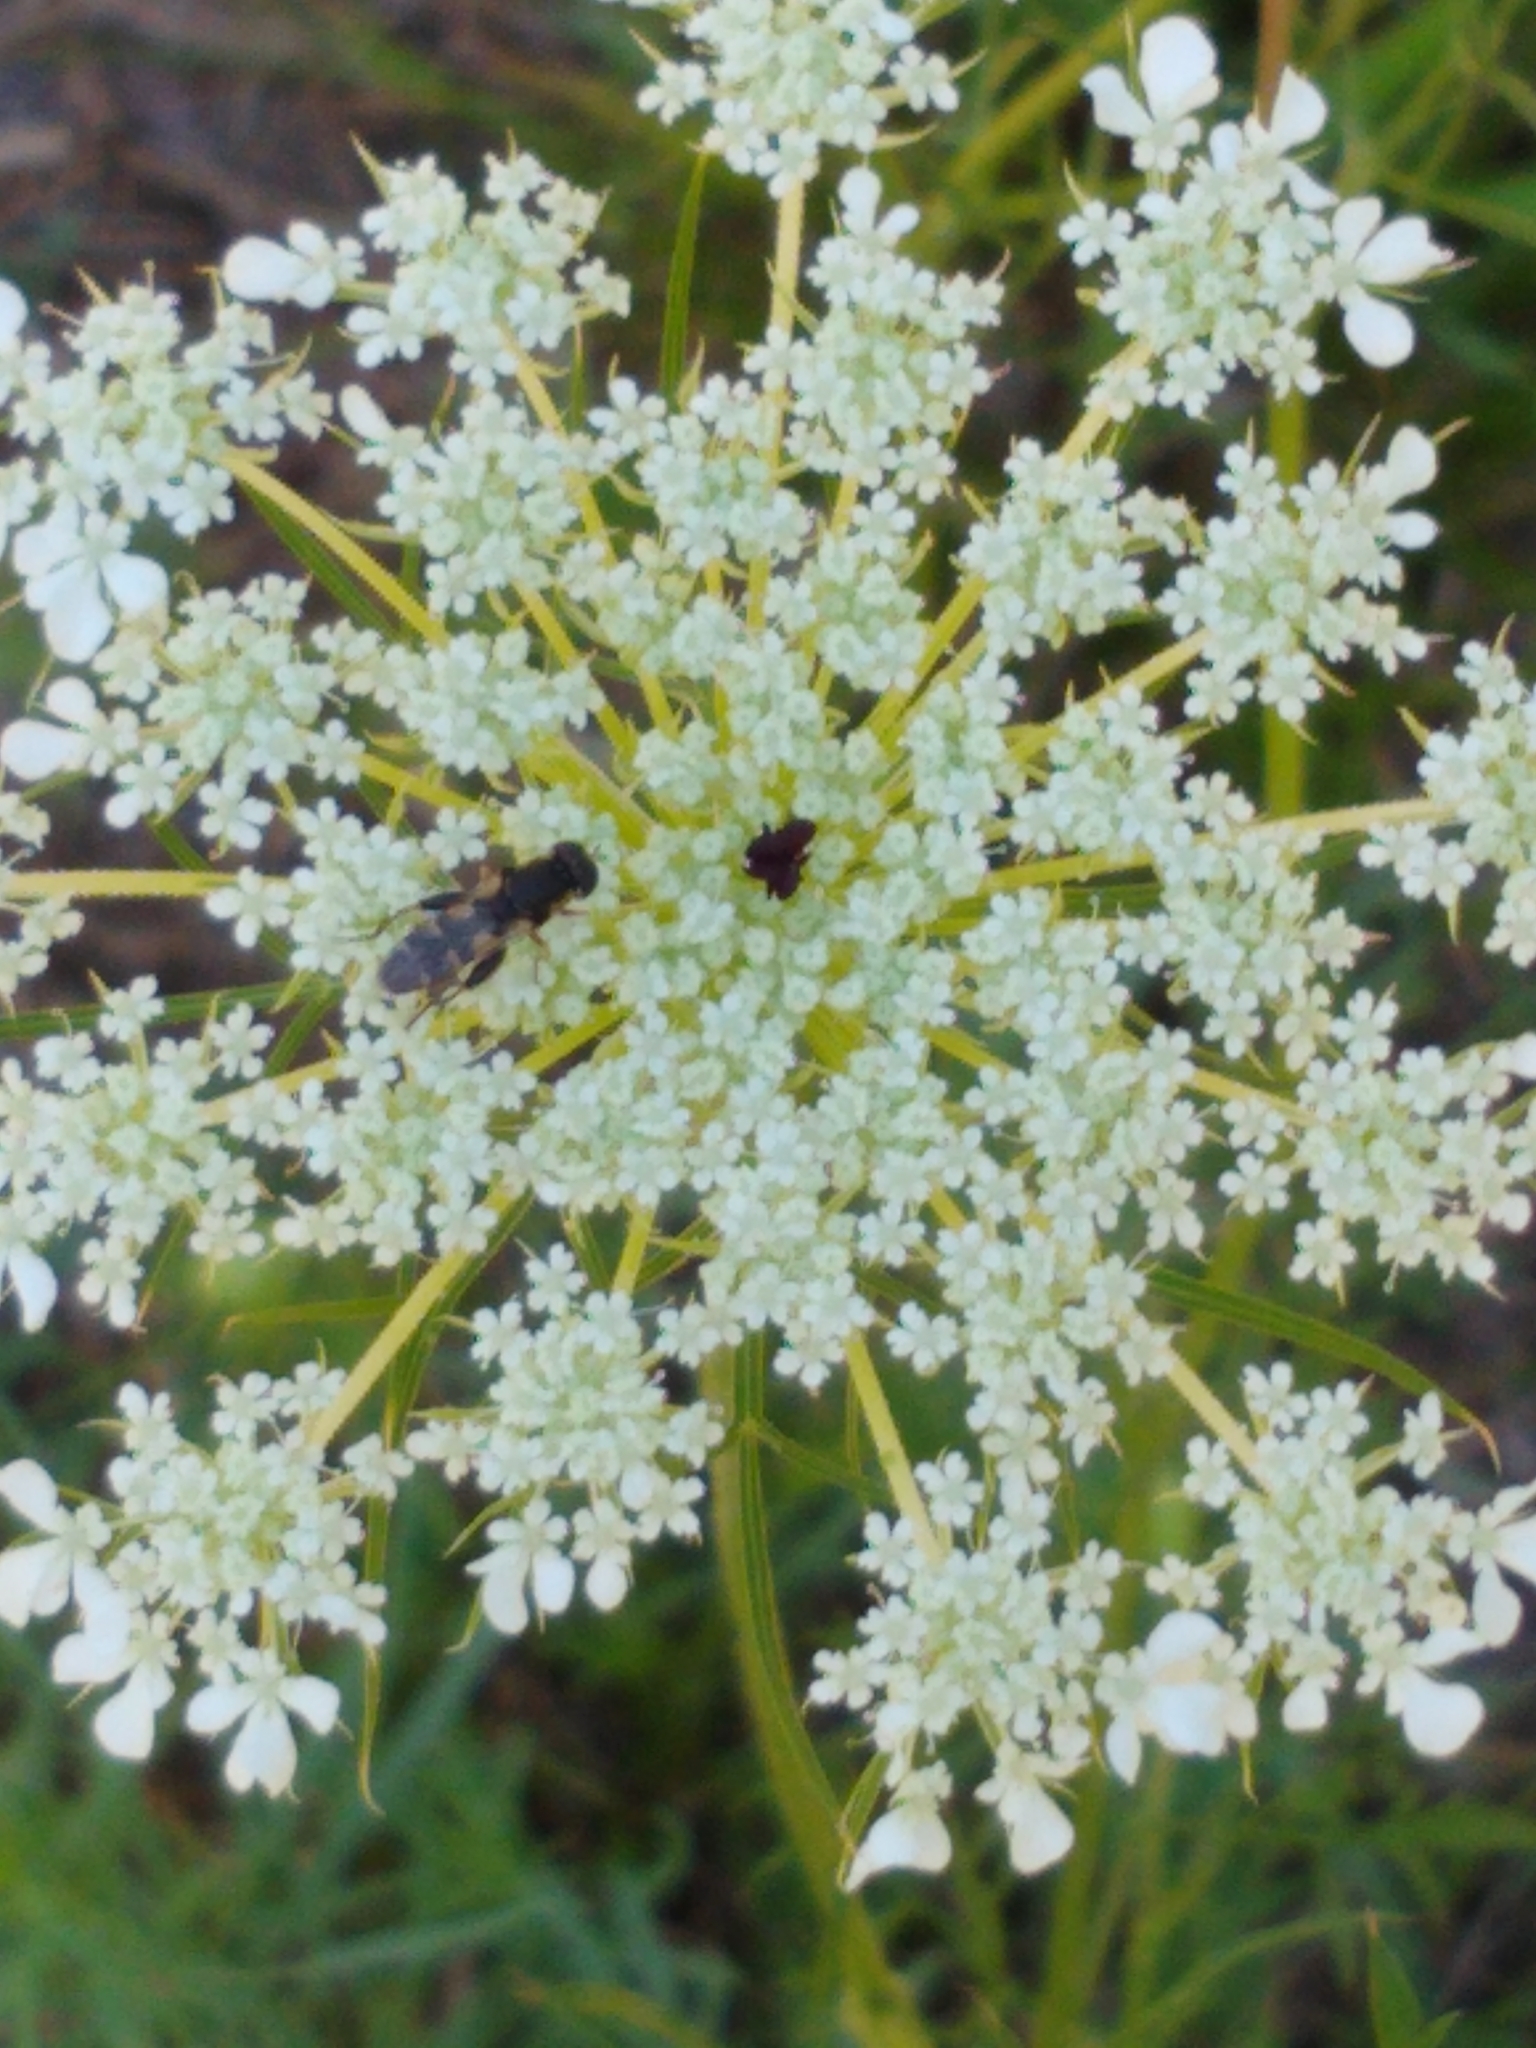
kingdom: Animalia
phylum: Arthropoda
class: Insecta
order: Diptera
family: Syrphidae
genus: Syritta
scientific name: Syritta pipiens
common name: Hover fly
